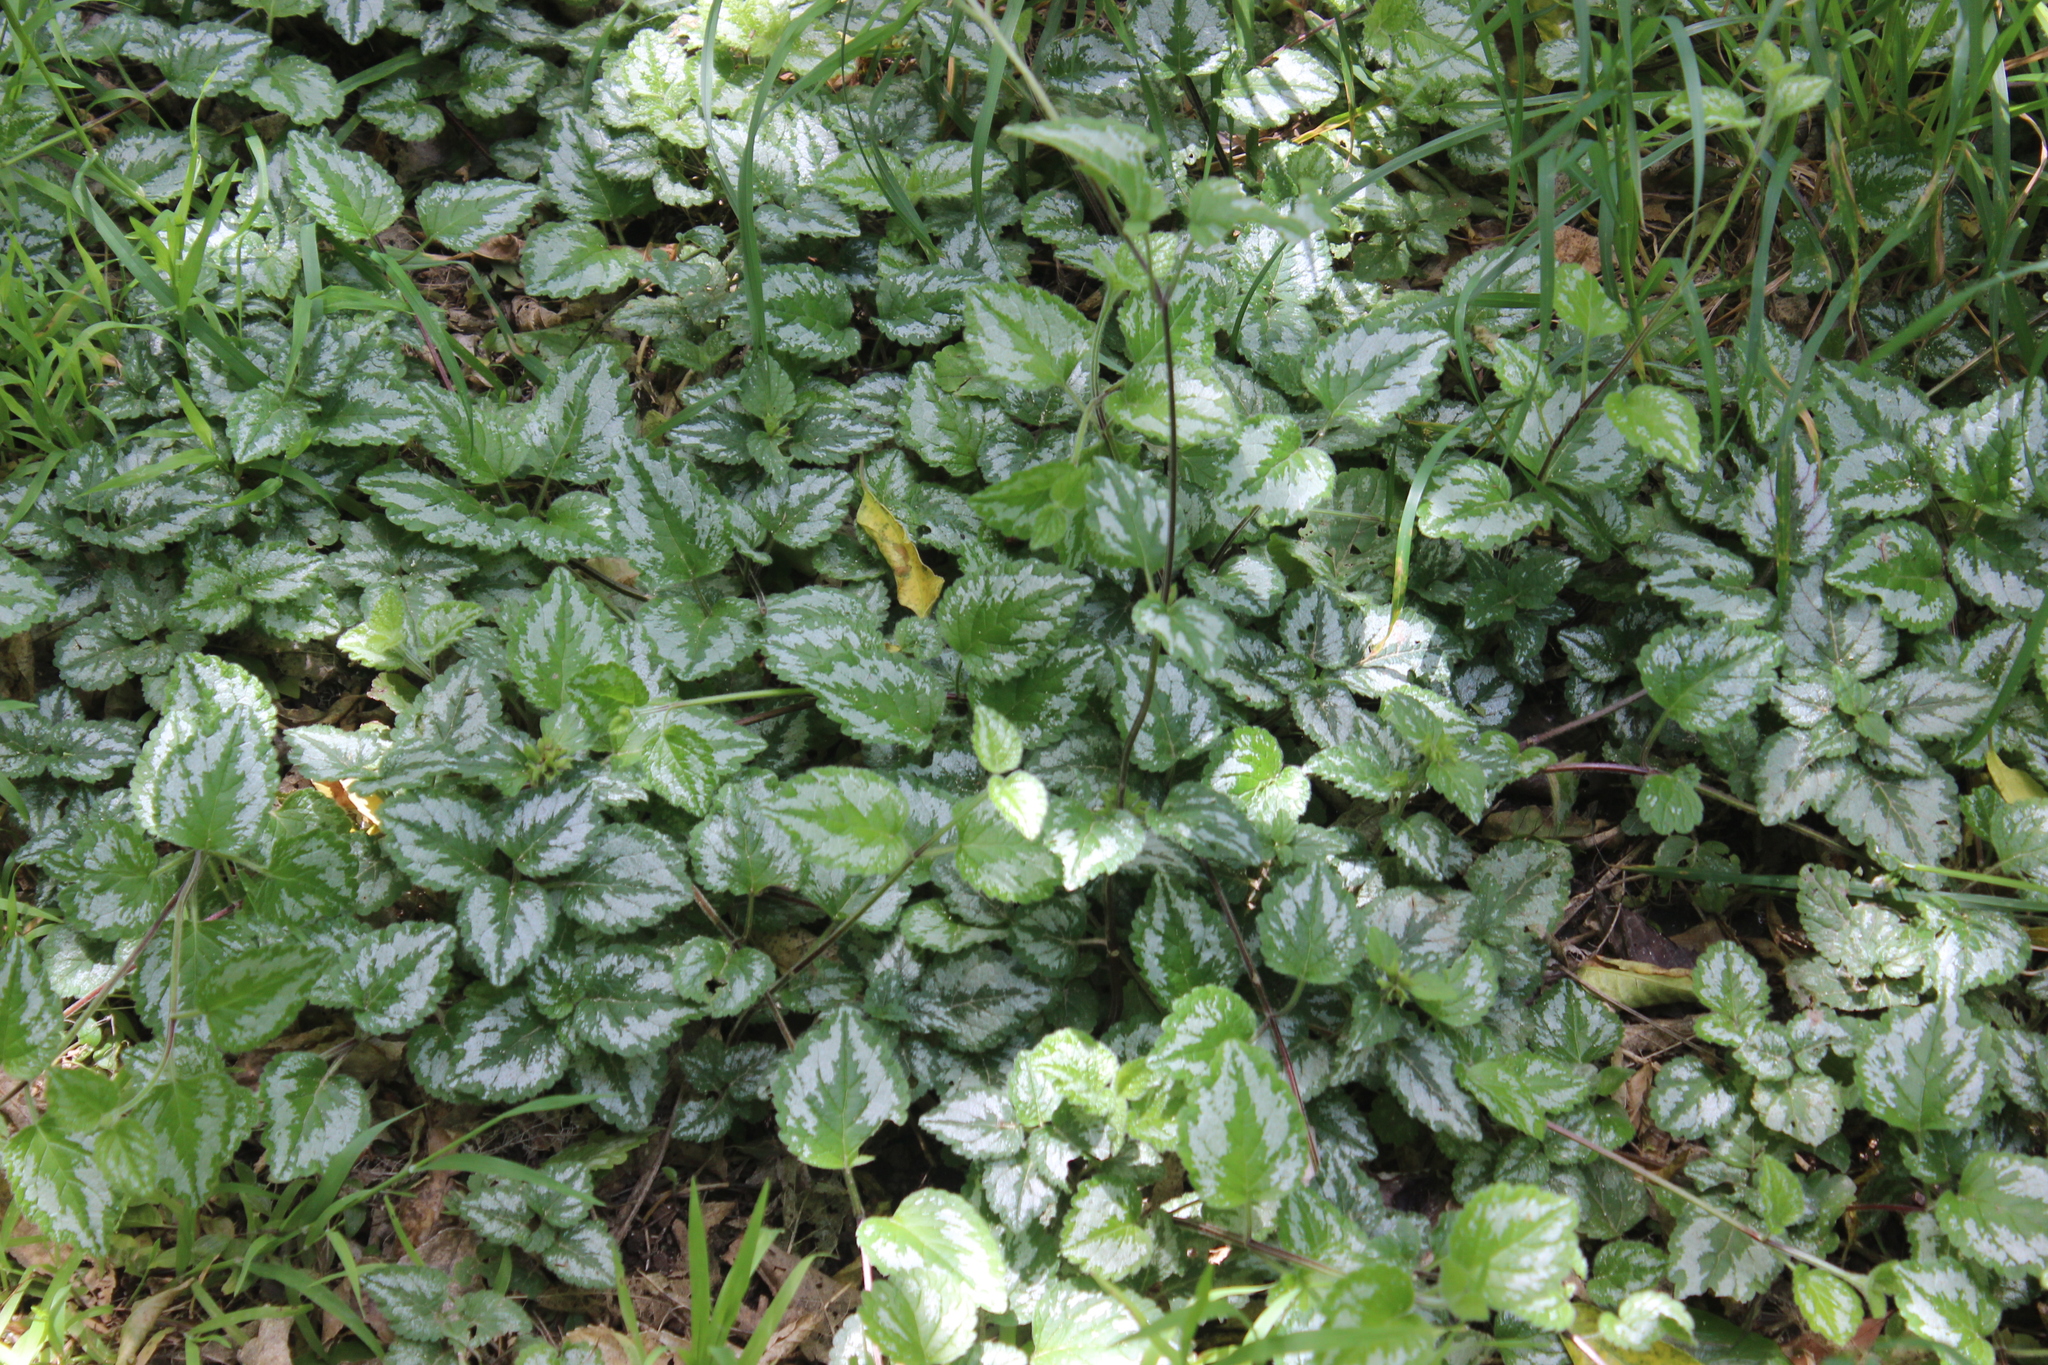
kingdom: Plantae
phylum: Tracheophyta
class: Magnoliopsida
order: Lamiales
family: Lamiaceae
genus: Lamium
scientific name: Lamium galeobdolon
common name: Yellow archangel
